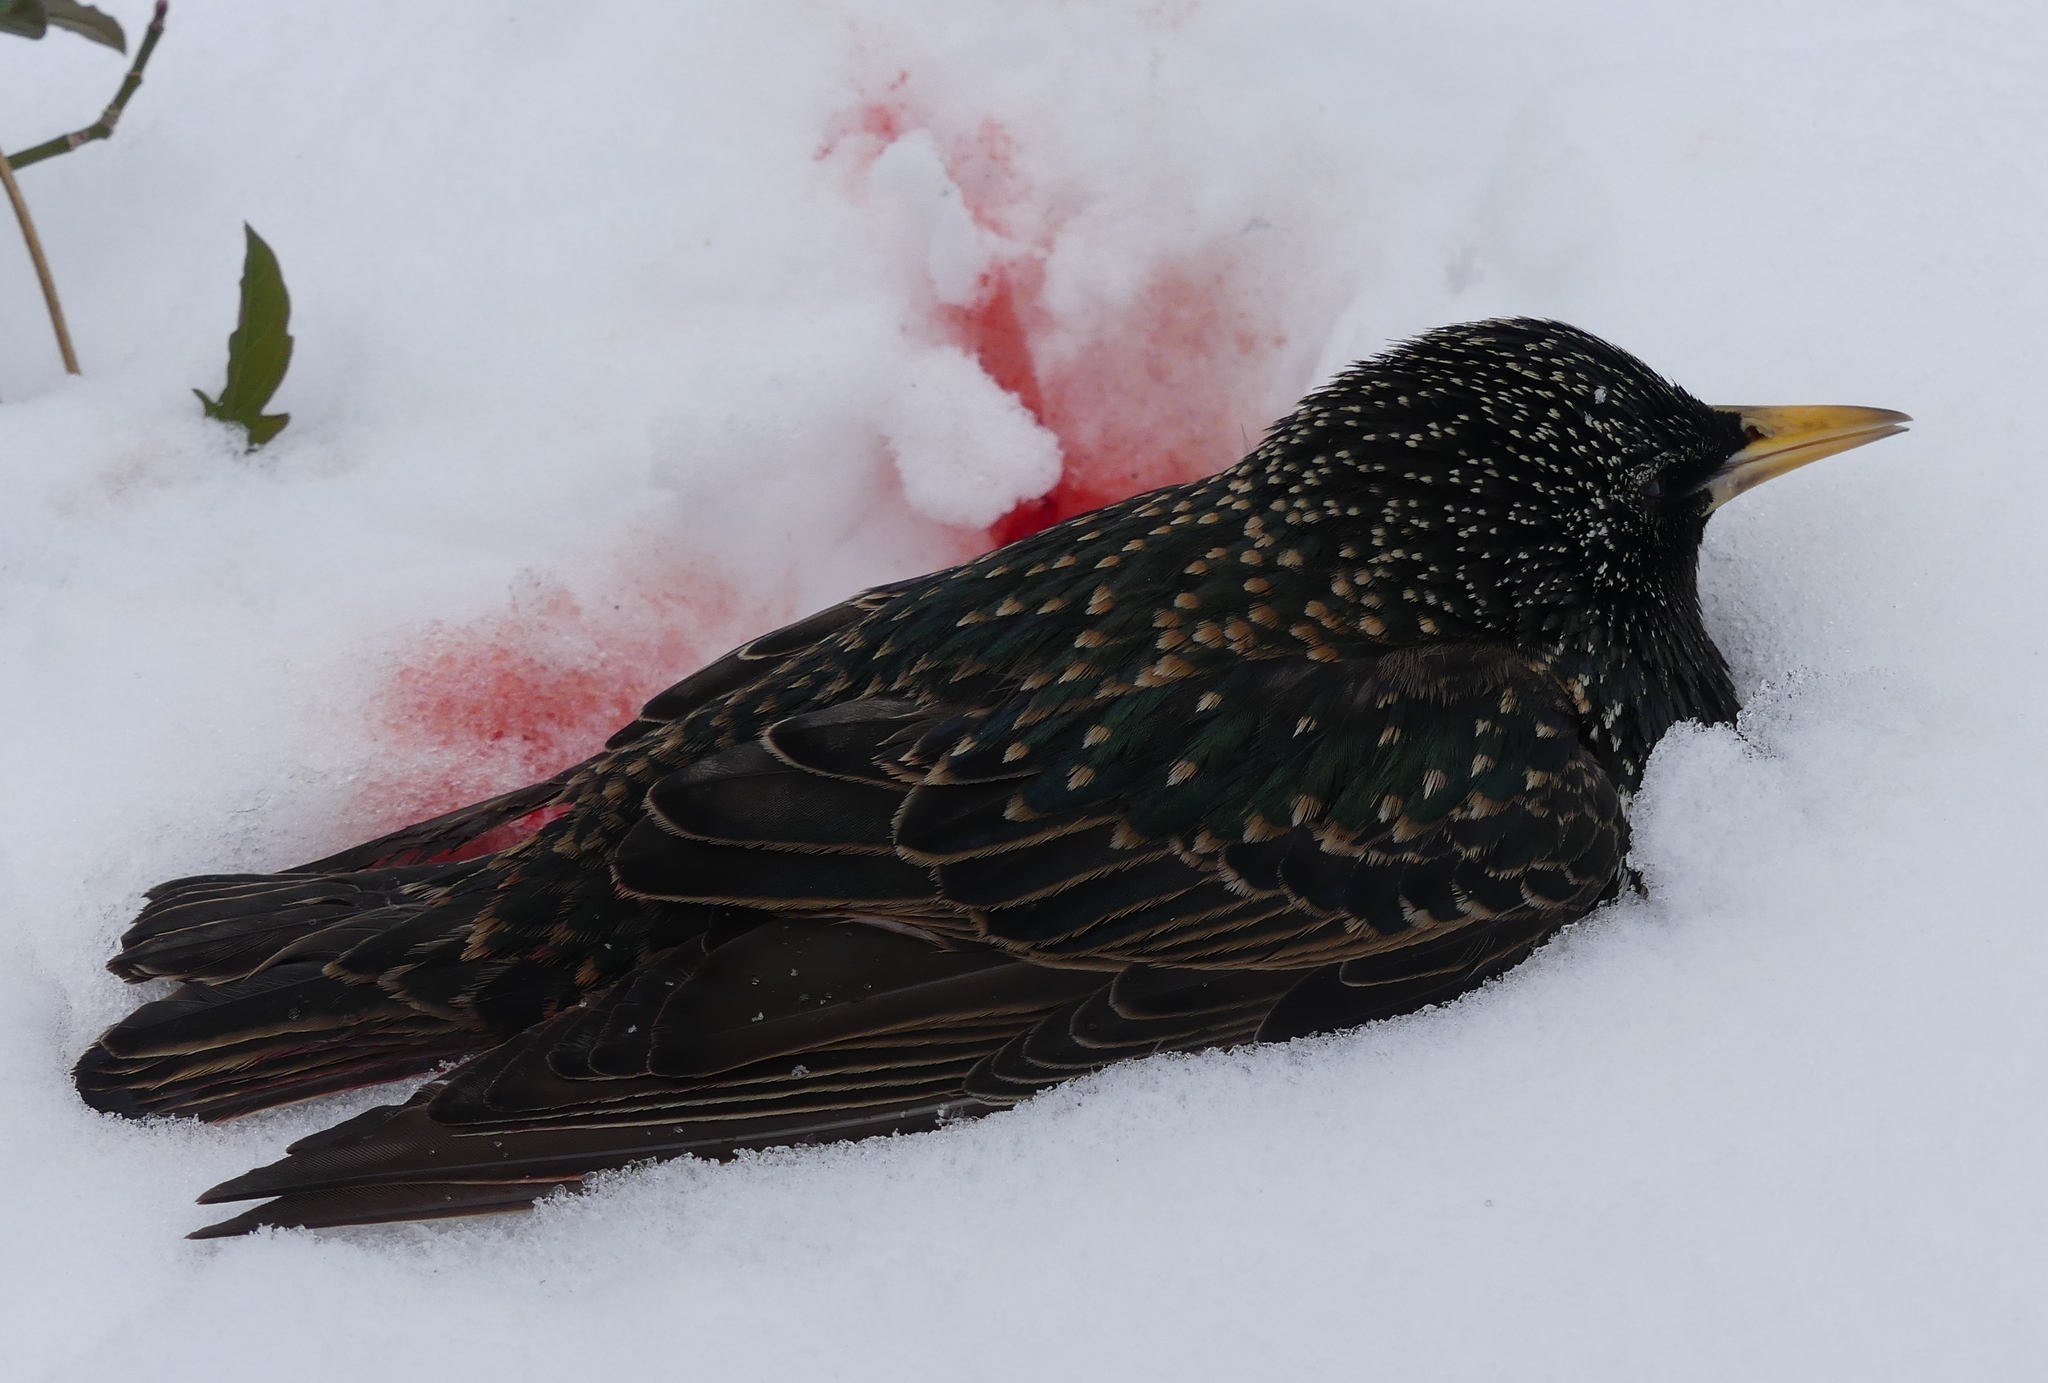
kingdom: Animalia
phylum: Chordata
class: Aves
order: Passeriformes
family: Sturnidae
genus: Sturnus
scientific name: Sturnus vulgaris
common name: Common starling
